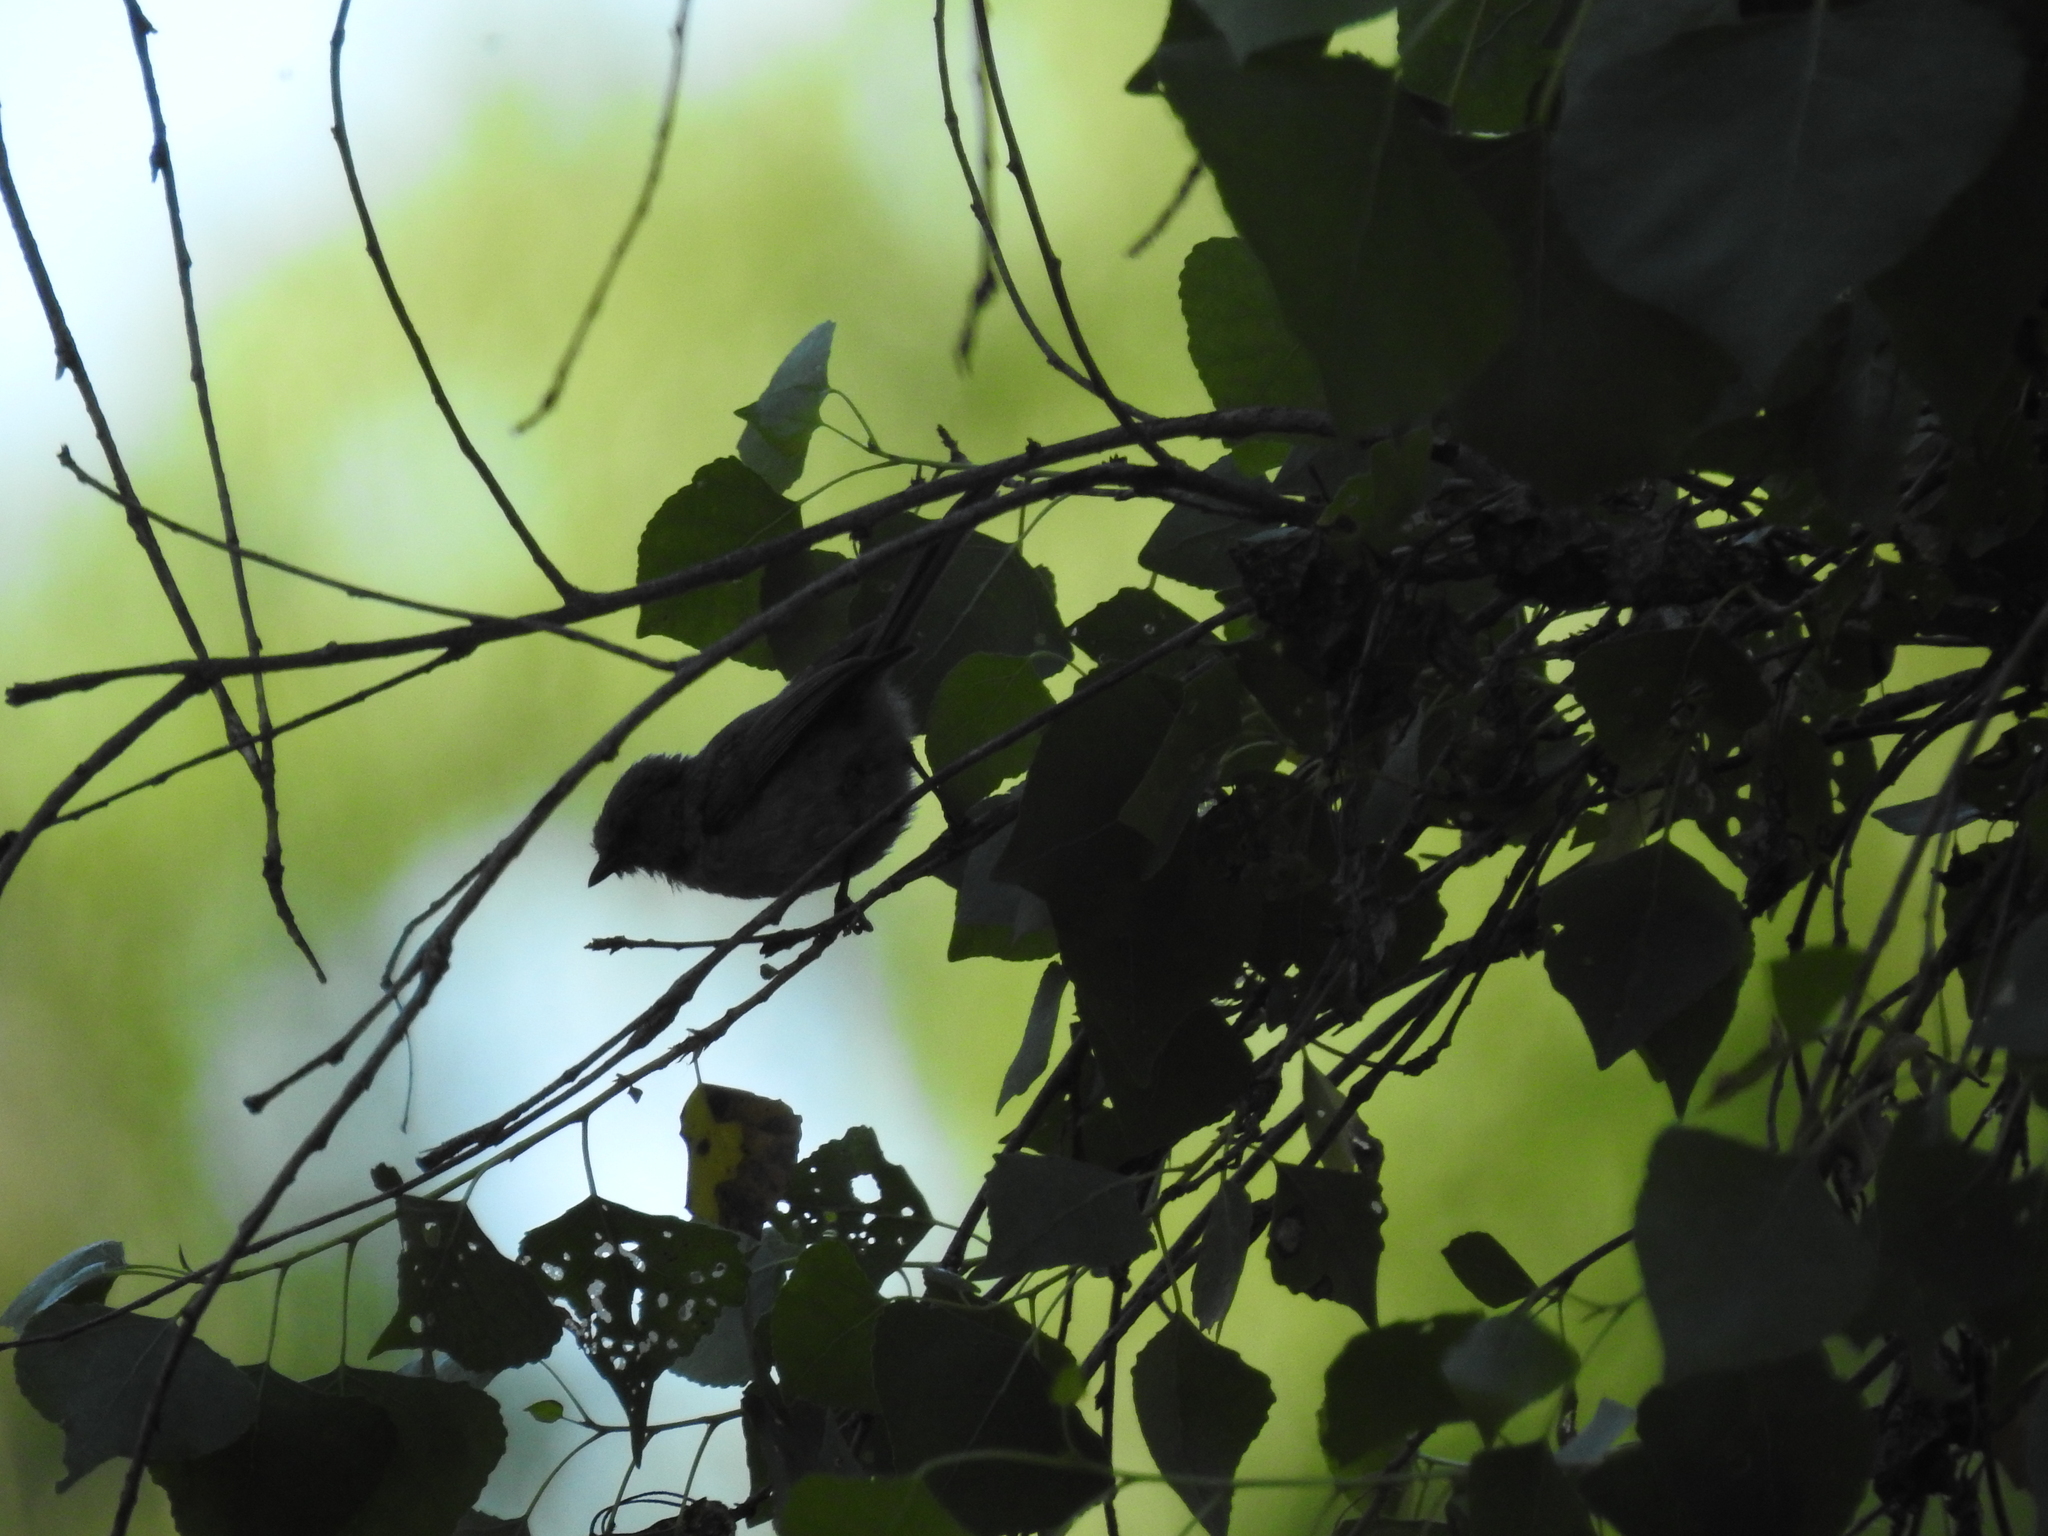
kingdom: Animalia
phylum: Chordata
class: Aves
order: Passeriformes
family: Aegithalidae
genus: Psaltriparus
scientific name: Psaltriparus minimus
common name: American bushtit
